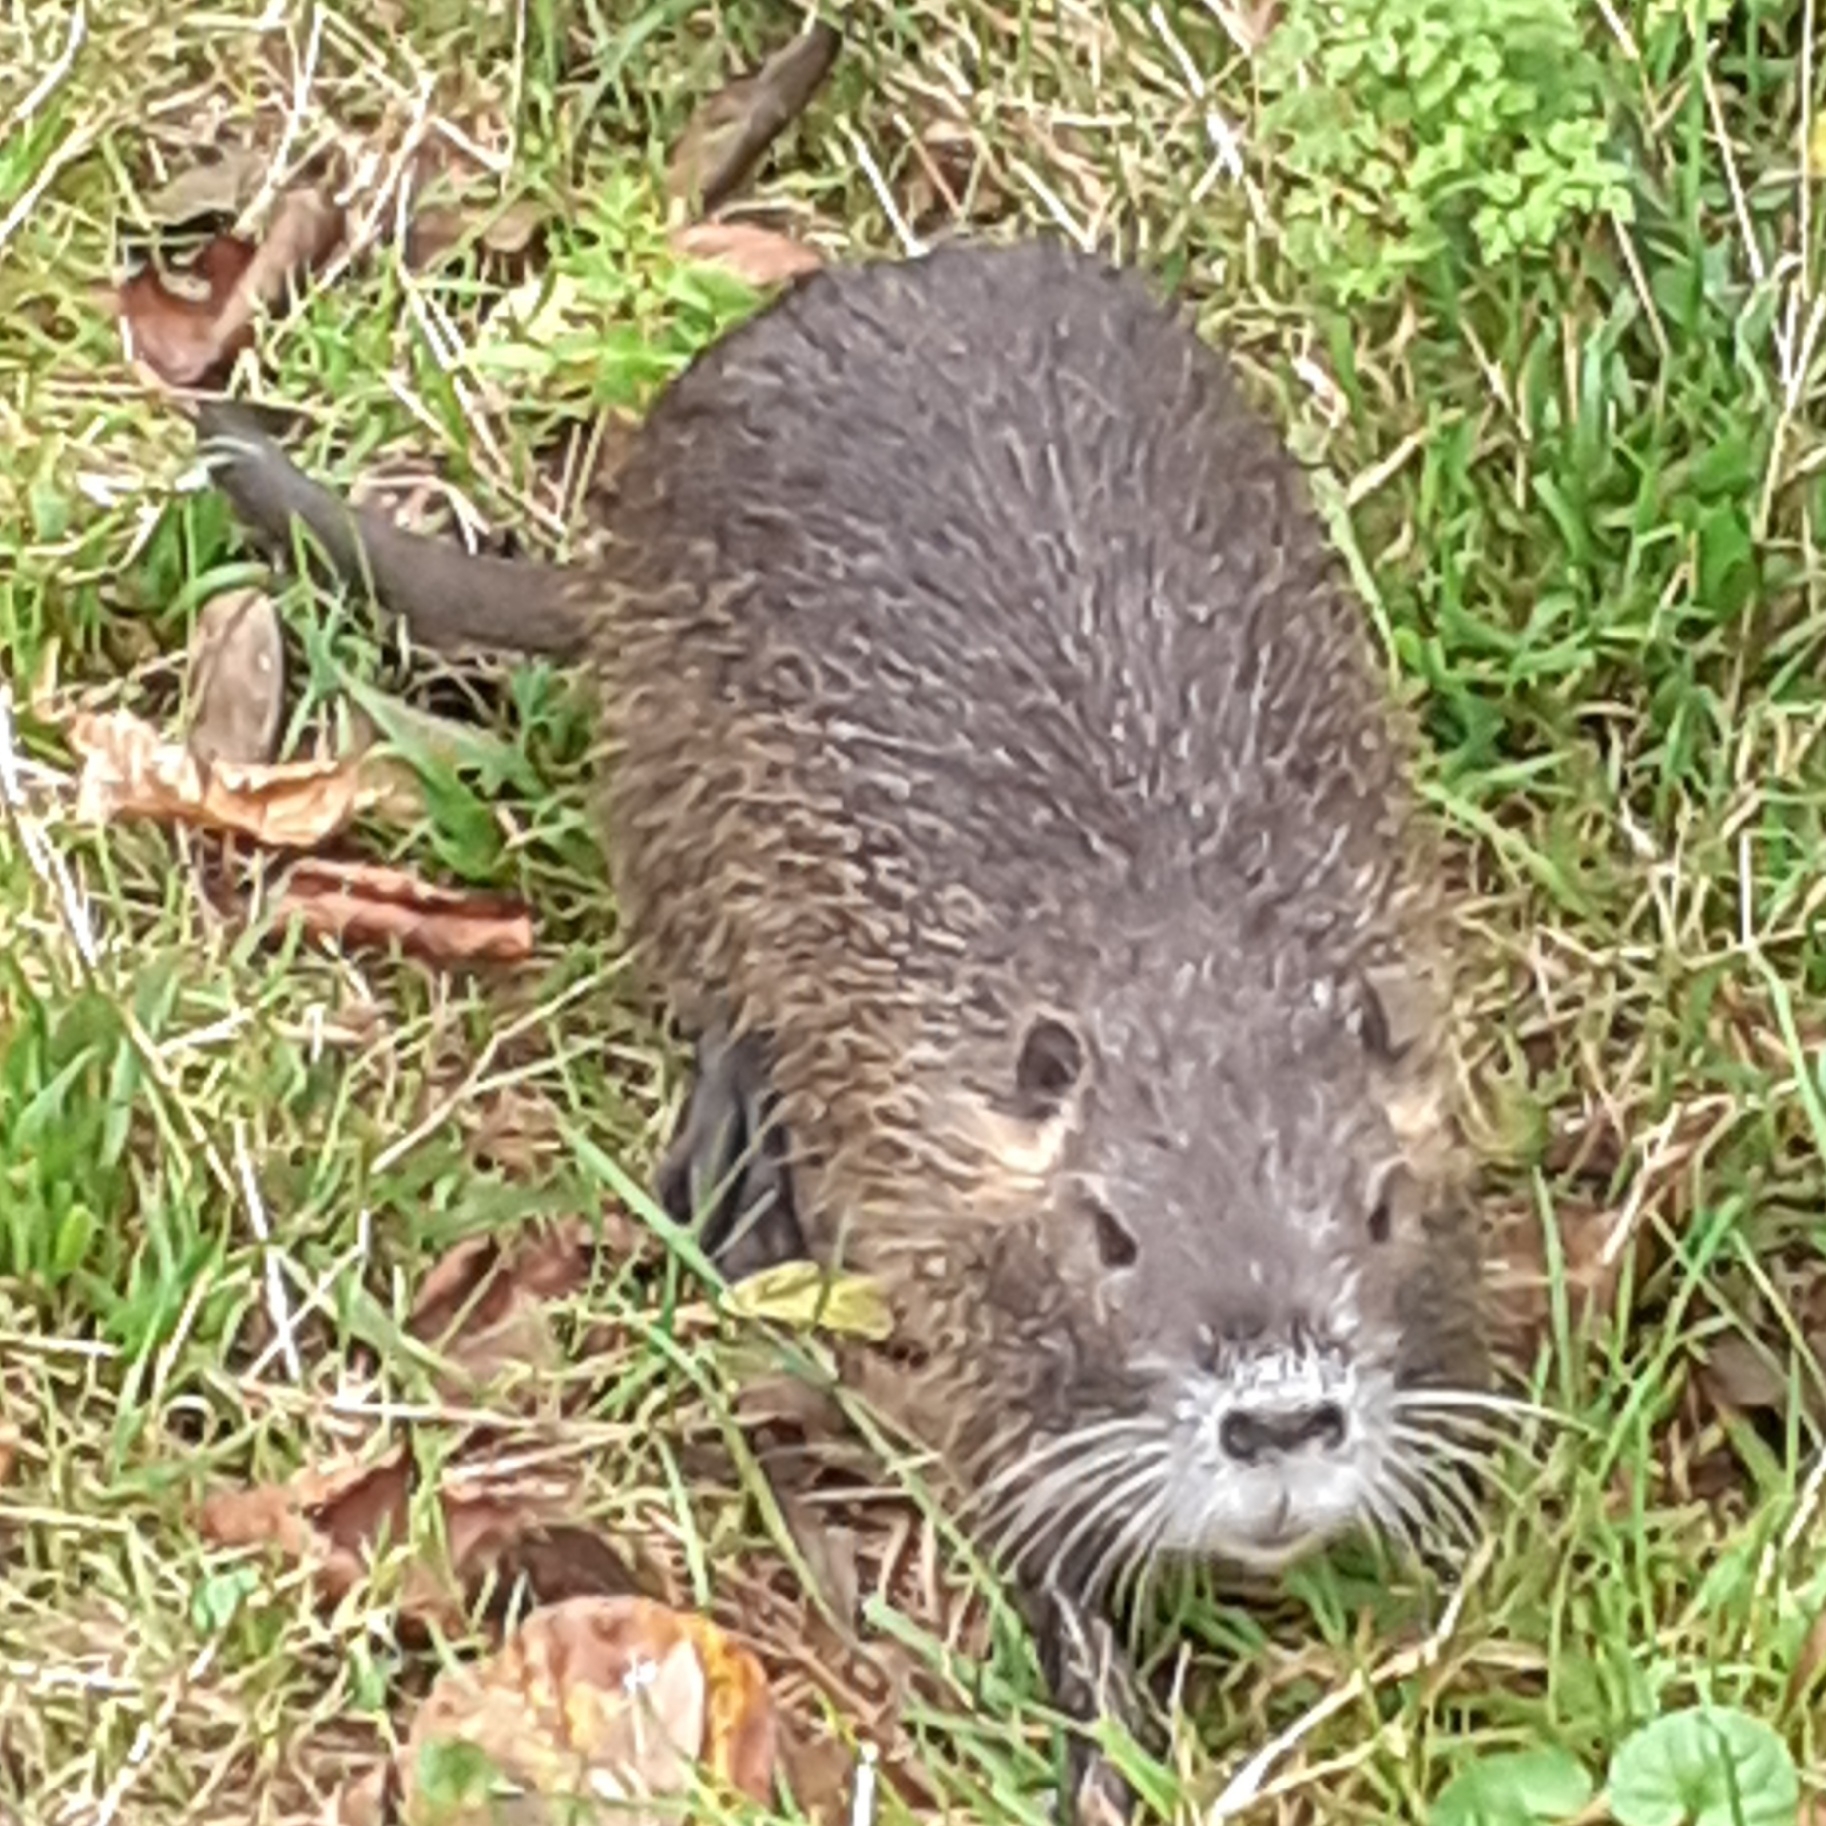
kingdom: Animalia
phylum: Chordata
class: Mammalia
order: Rodentia
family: Myocastoridae
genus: Myocastor
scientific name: Myocastor coypus
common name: Coypu
